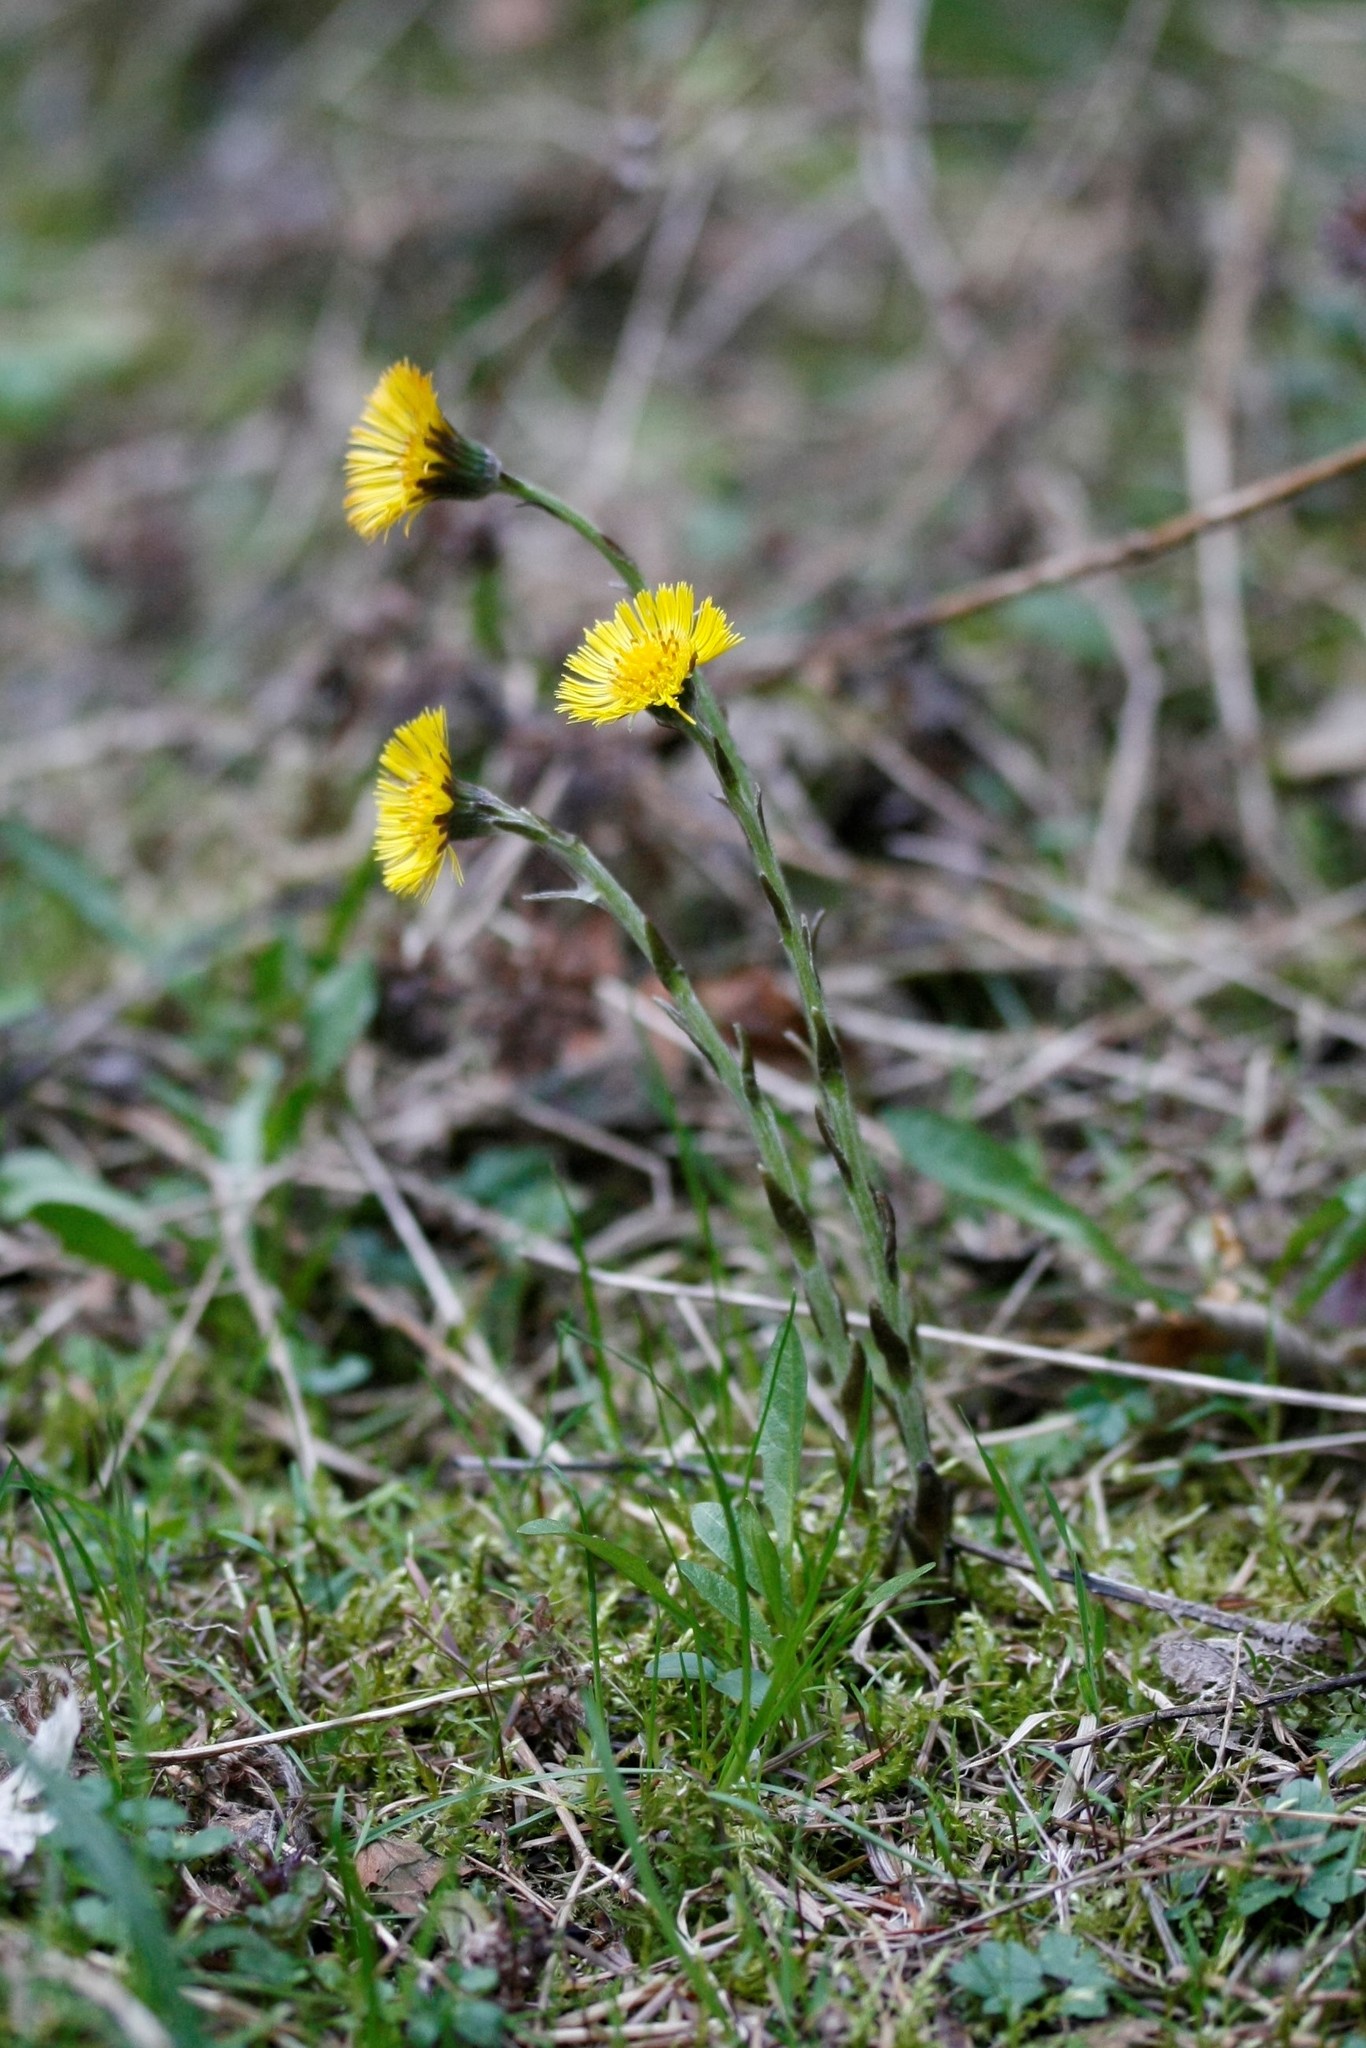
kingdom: Plantae
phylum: Tracheophyta
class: Magnoliopsida
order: Asterales
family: Asteraceae
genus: Tussilago
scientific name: Tussilago farfara
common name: Coltsfoot
